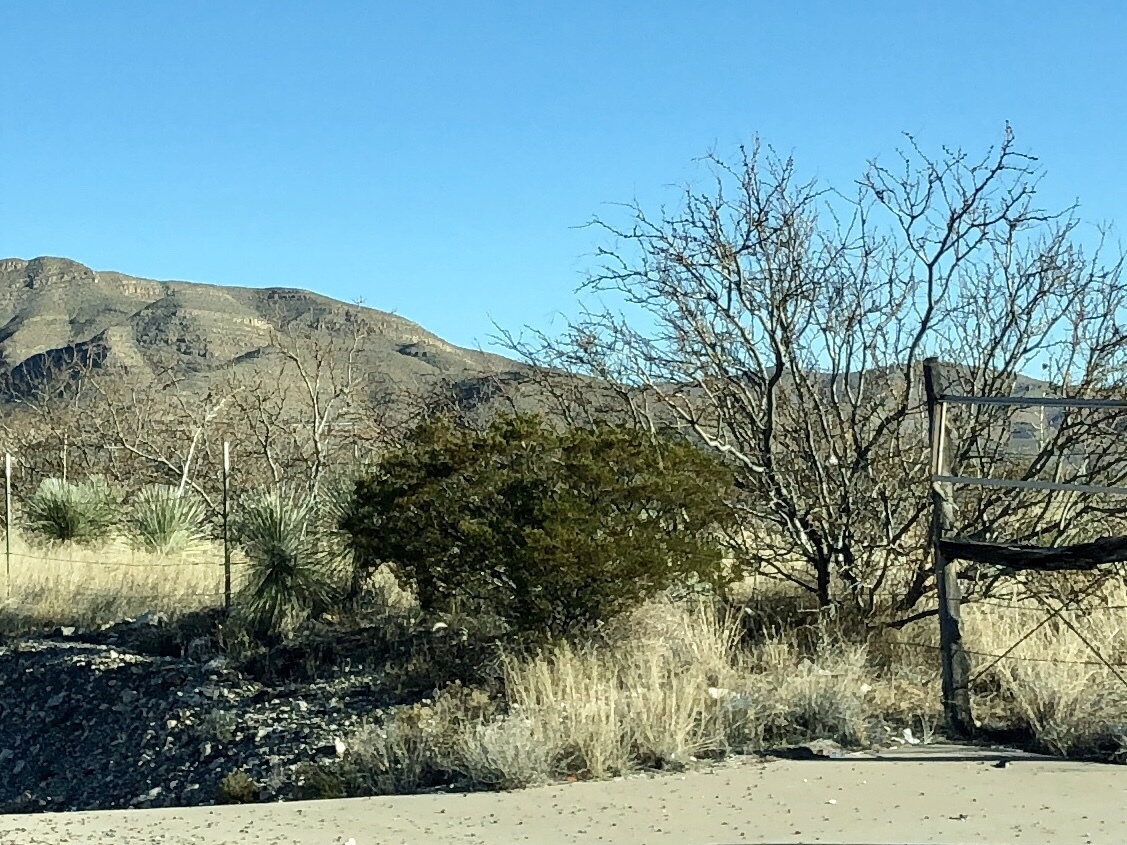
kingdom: Plantae
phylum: Tracheophyta
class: Magnoliopsida
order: Zygophyllales
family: Zygophyllaceae
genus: Larrea
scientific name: Larrea tridentata
